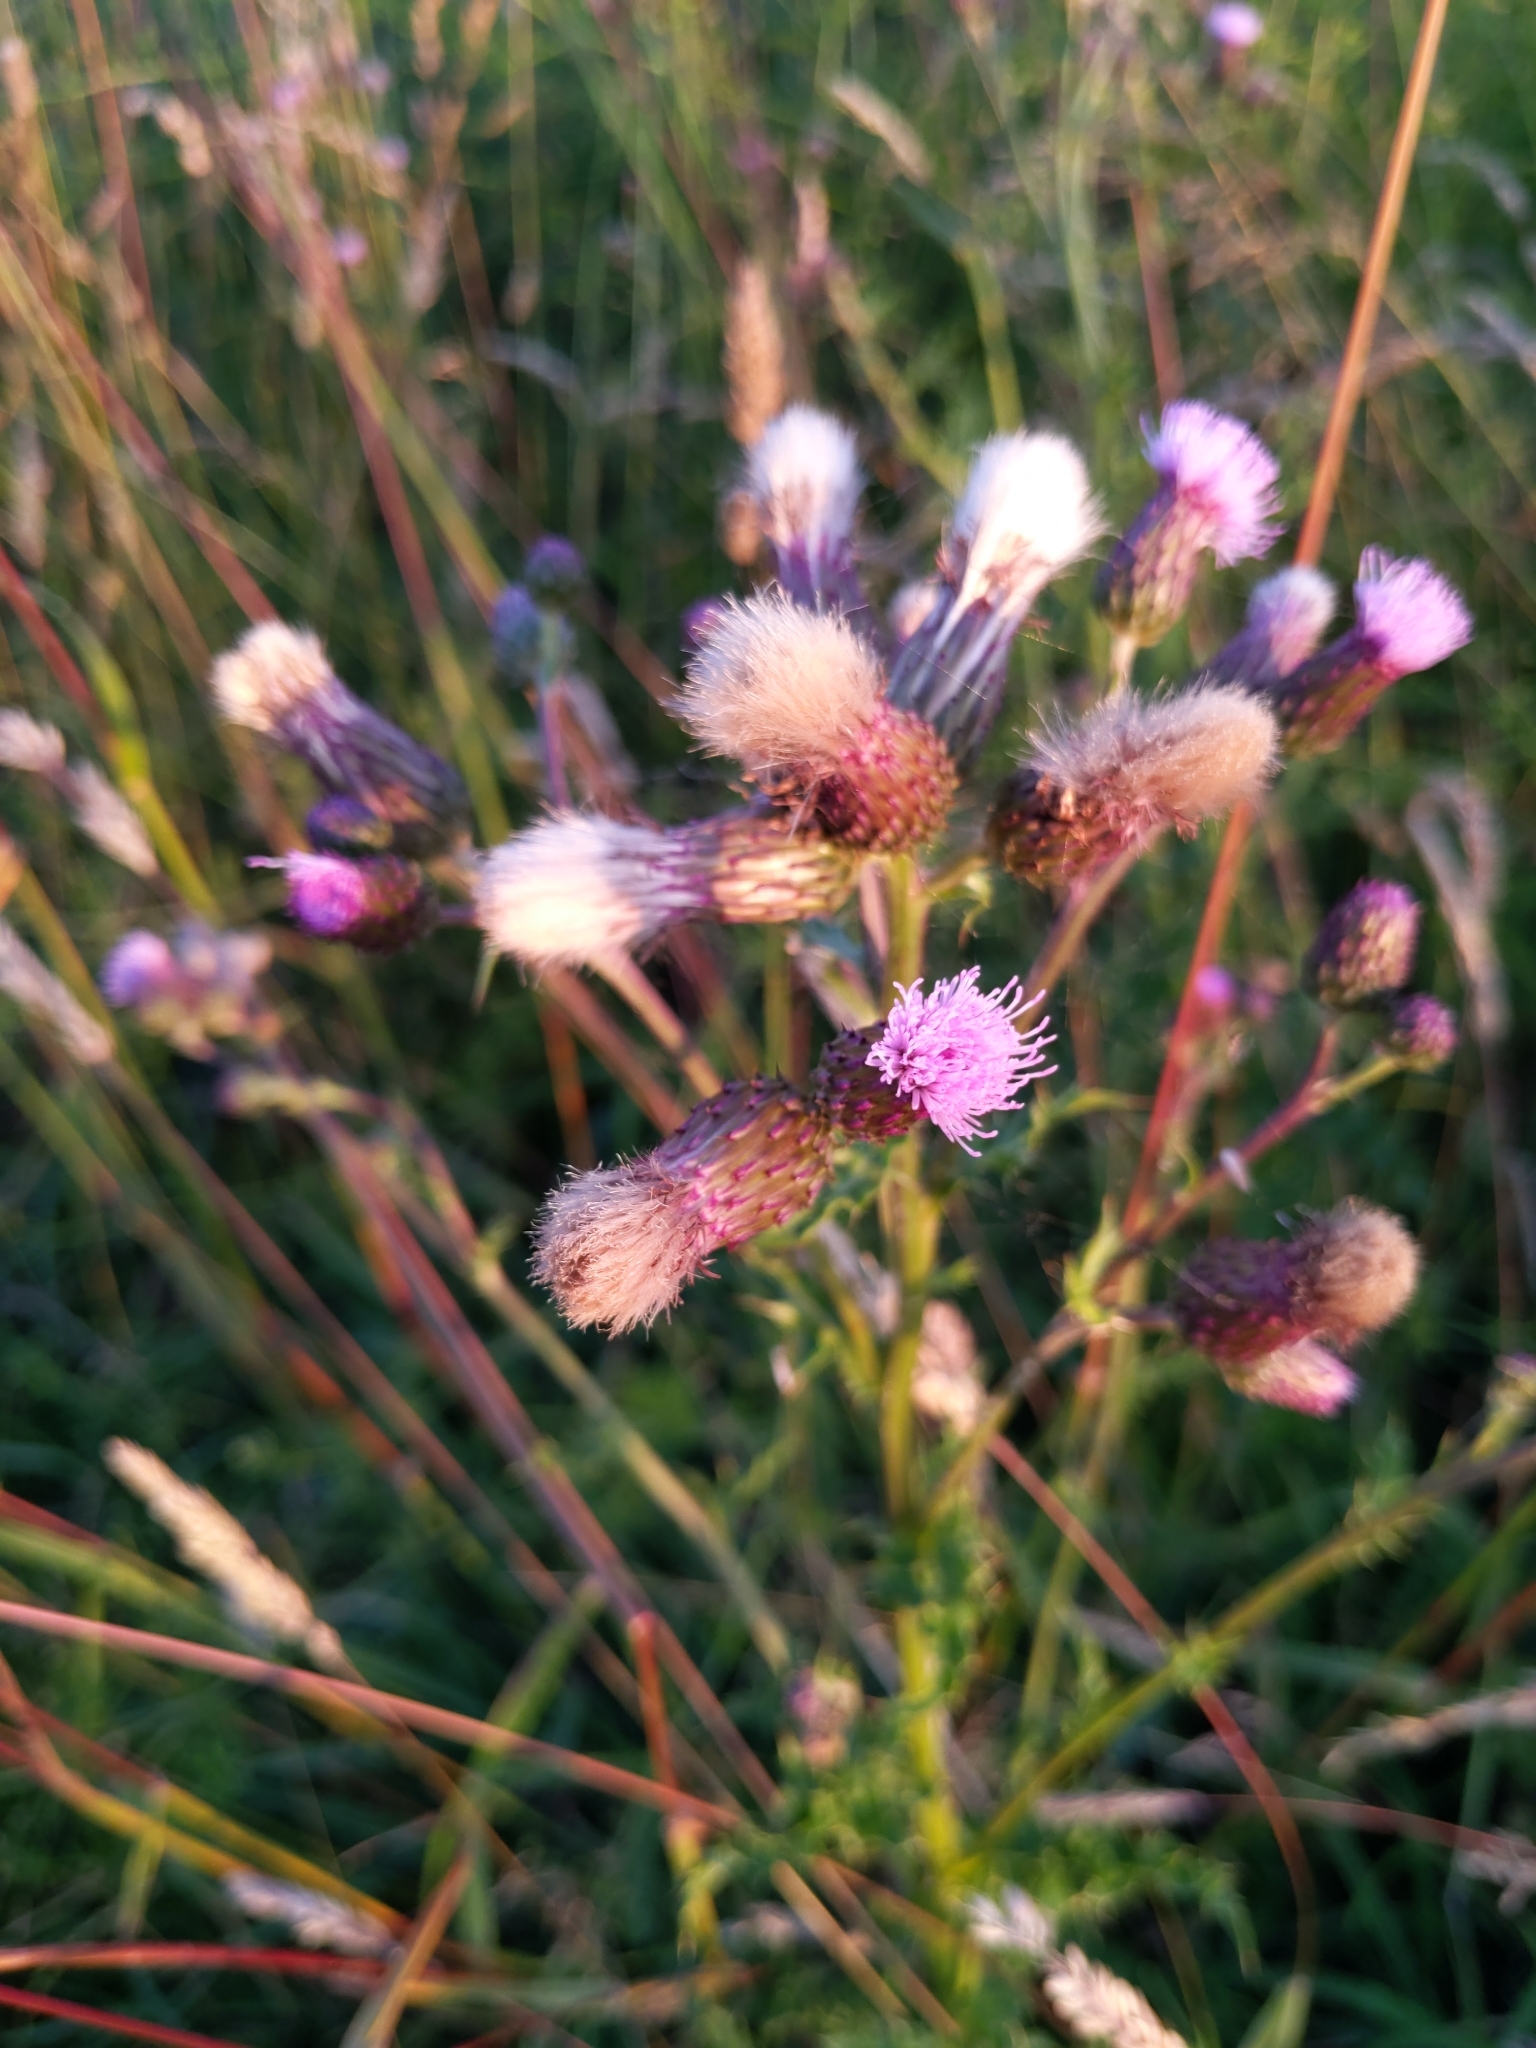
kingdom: Plantae
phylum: Tracheophyta
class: Magnoliopsida
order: Asterales
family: Asteraceae
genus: Cirsium
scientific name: Cirsium arvense
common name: Creeping thistle
